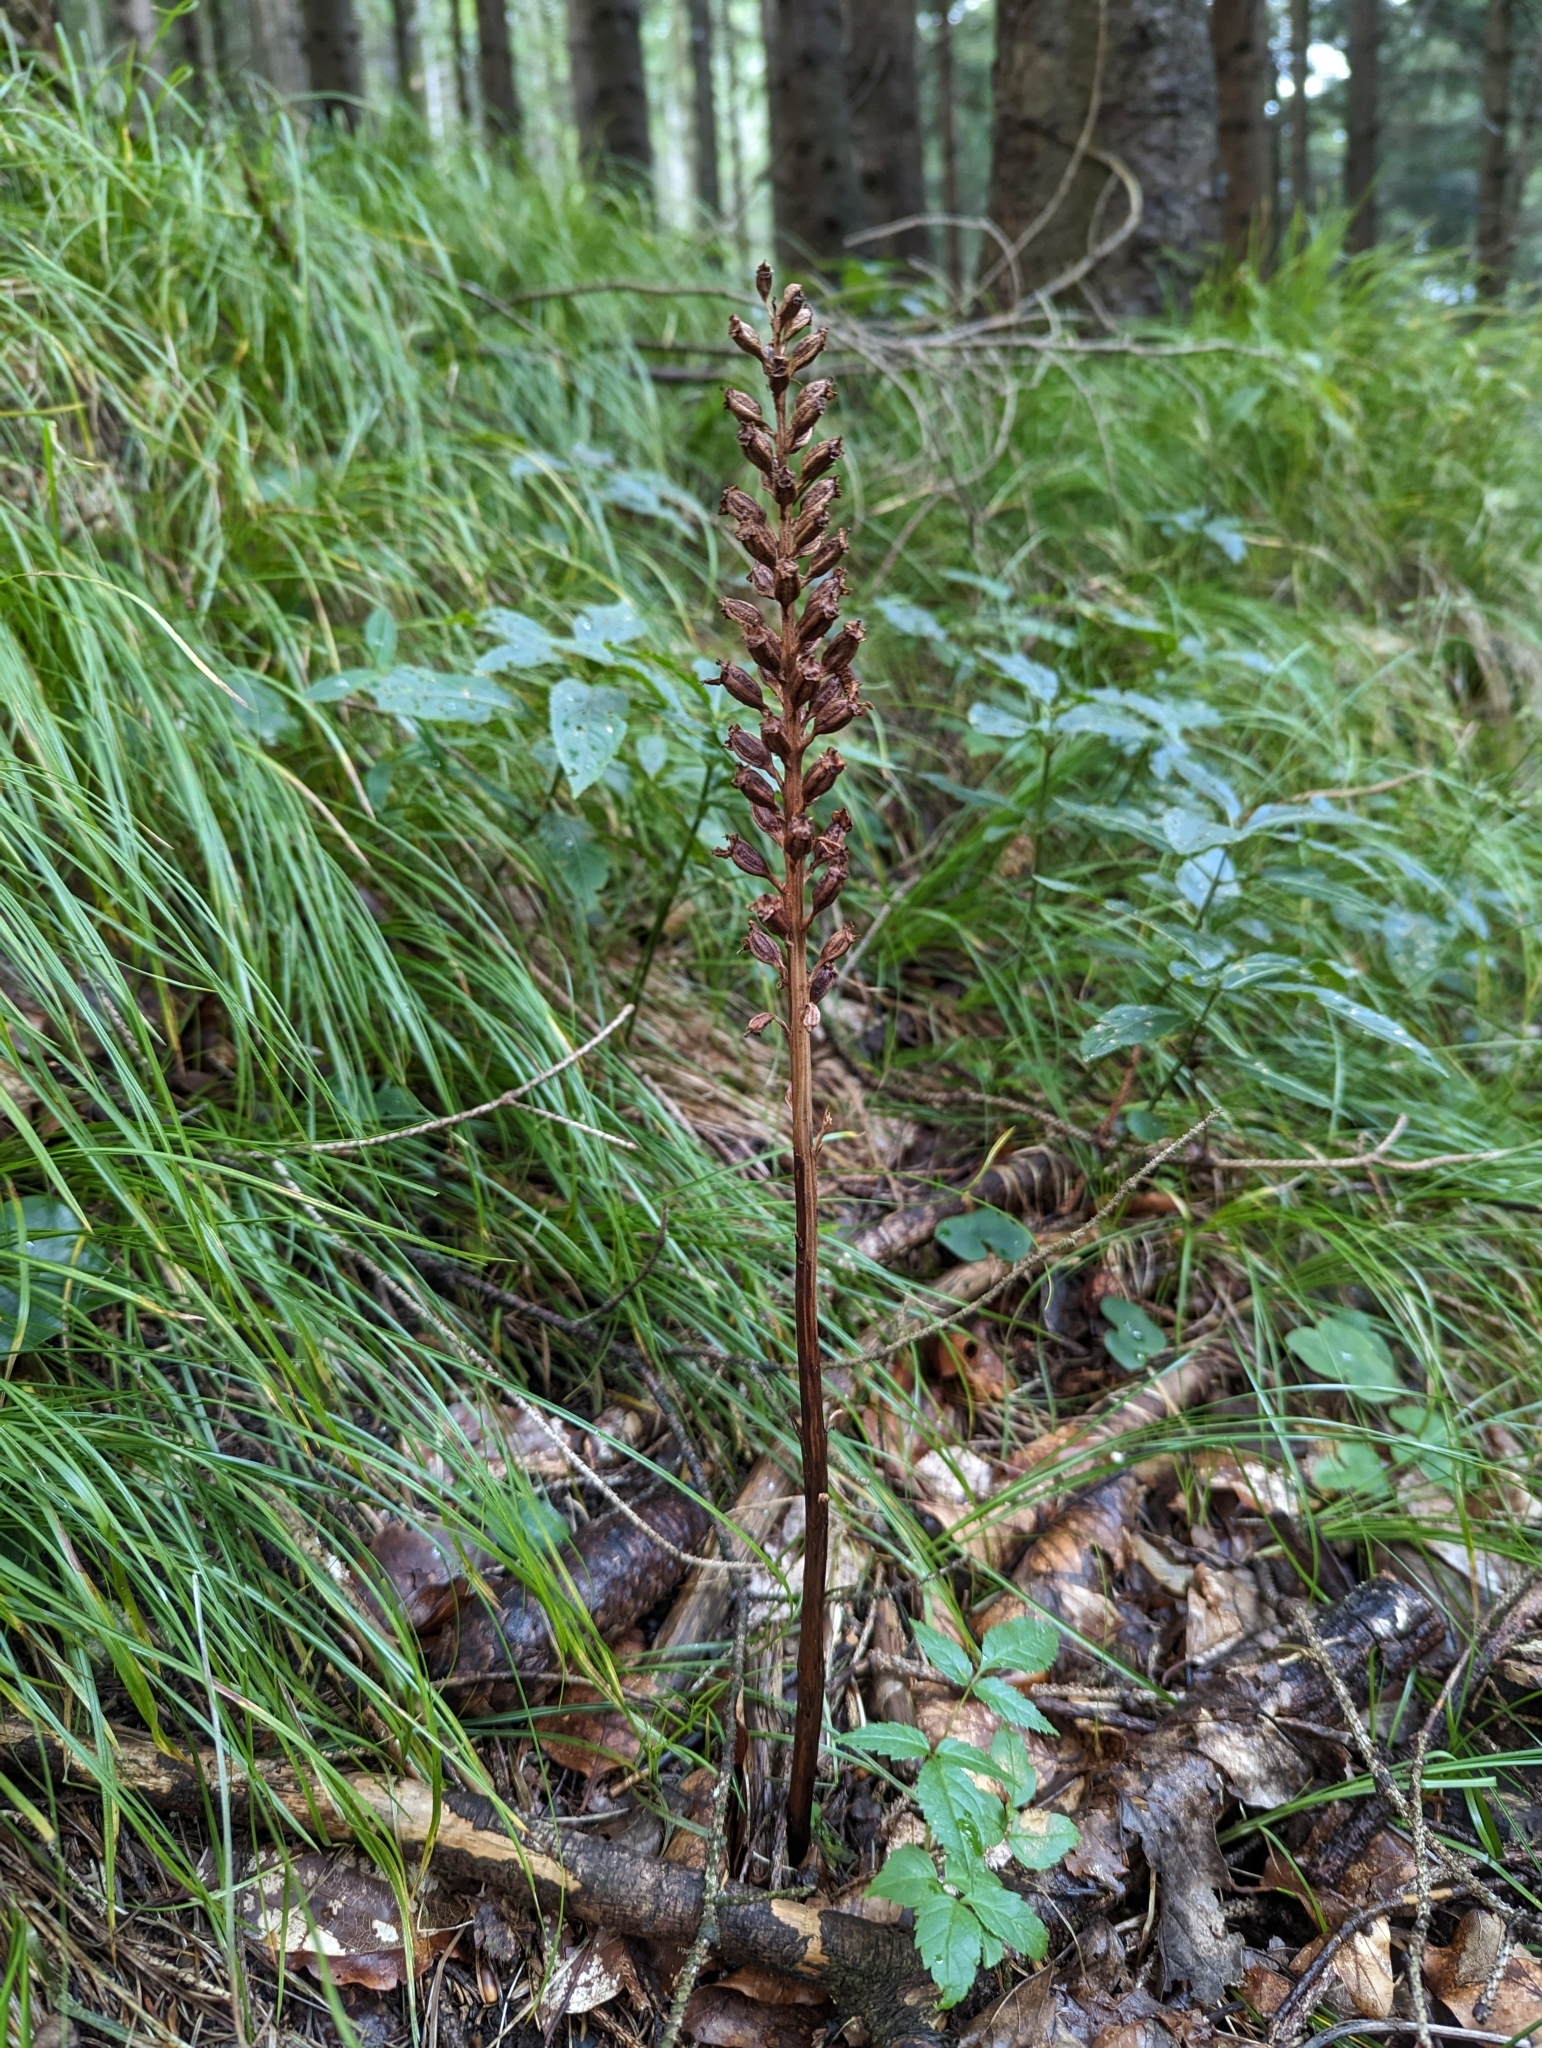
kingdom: Plantae
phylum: Tracheophyta
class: Liliopsida
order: Asparagales
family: Orchidaceae
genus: Neottia
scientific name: Neottia nidus-avis
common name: Bird's-nest orchid
